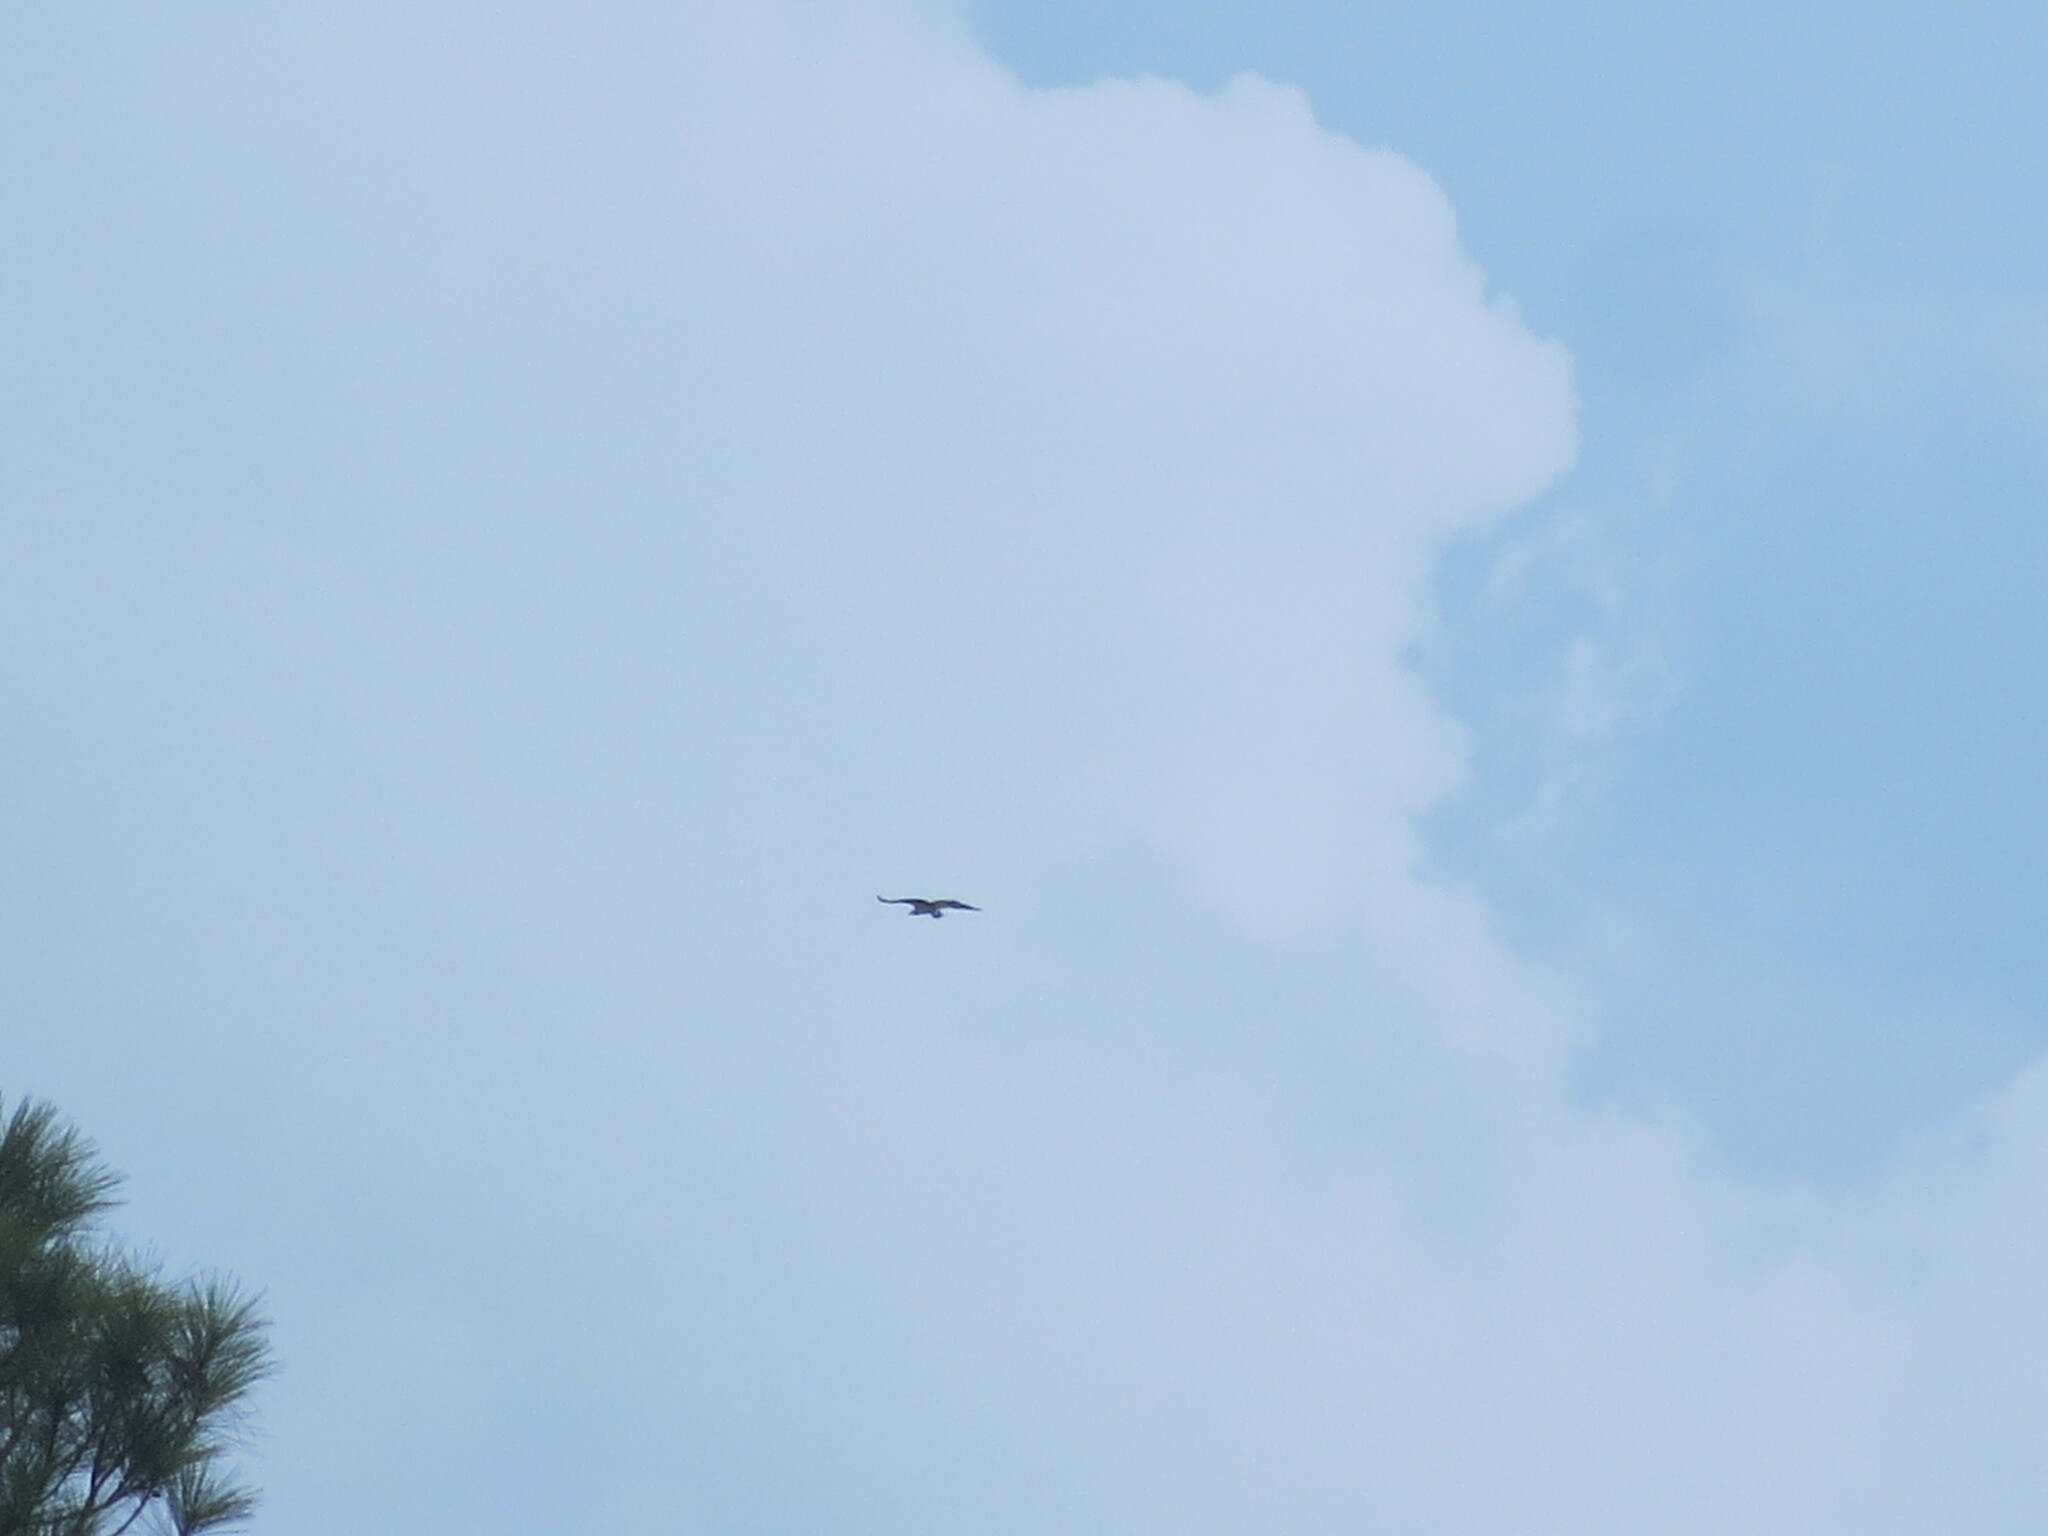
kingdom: Animalia
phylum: Chordata
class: Aves
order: Accipitriformes
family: Pandionidae
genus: Pandion
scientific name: Pandion haliaetus
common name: Osprey
